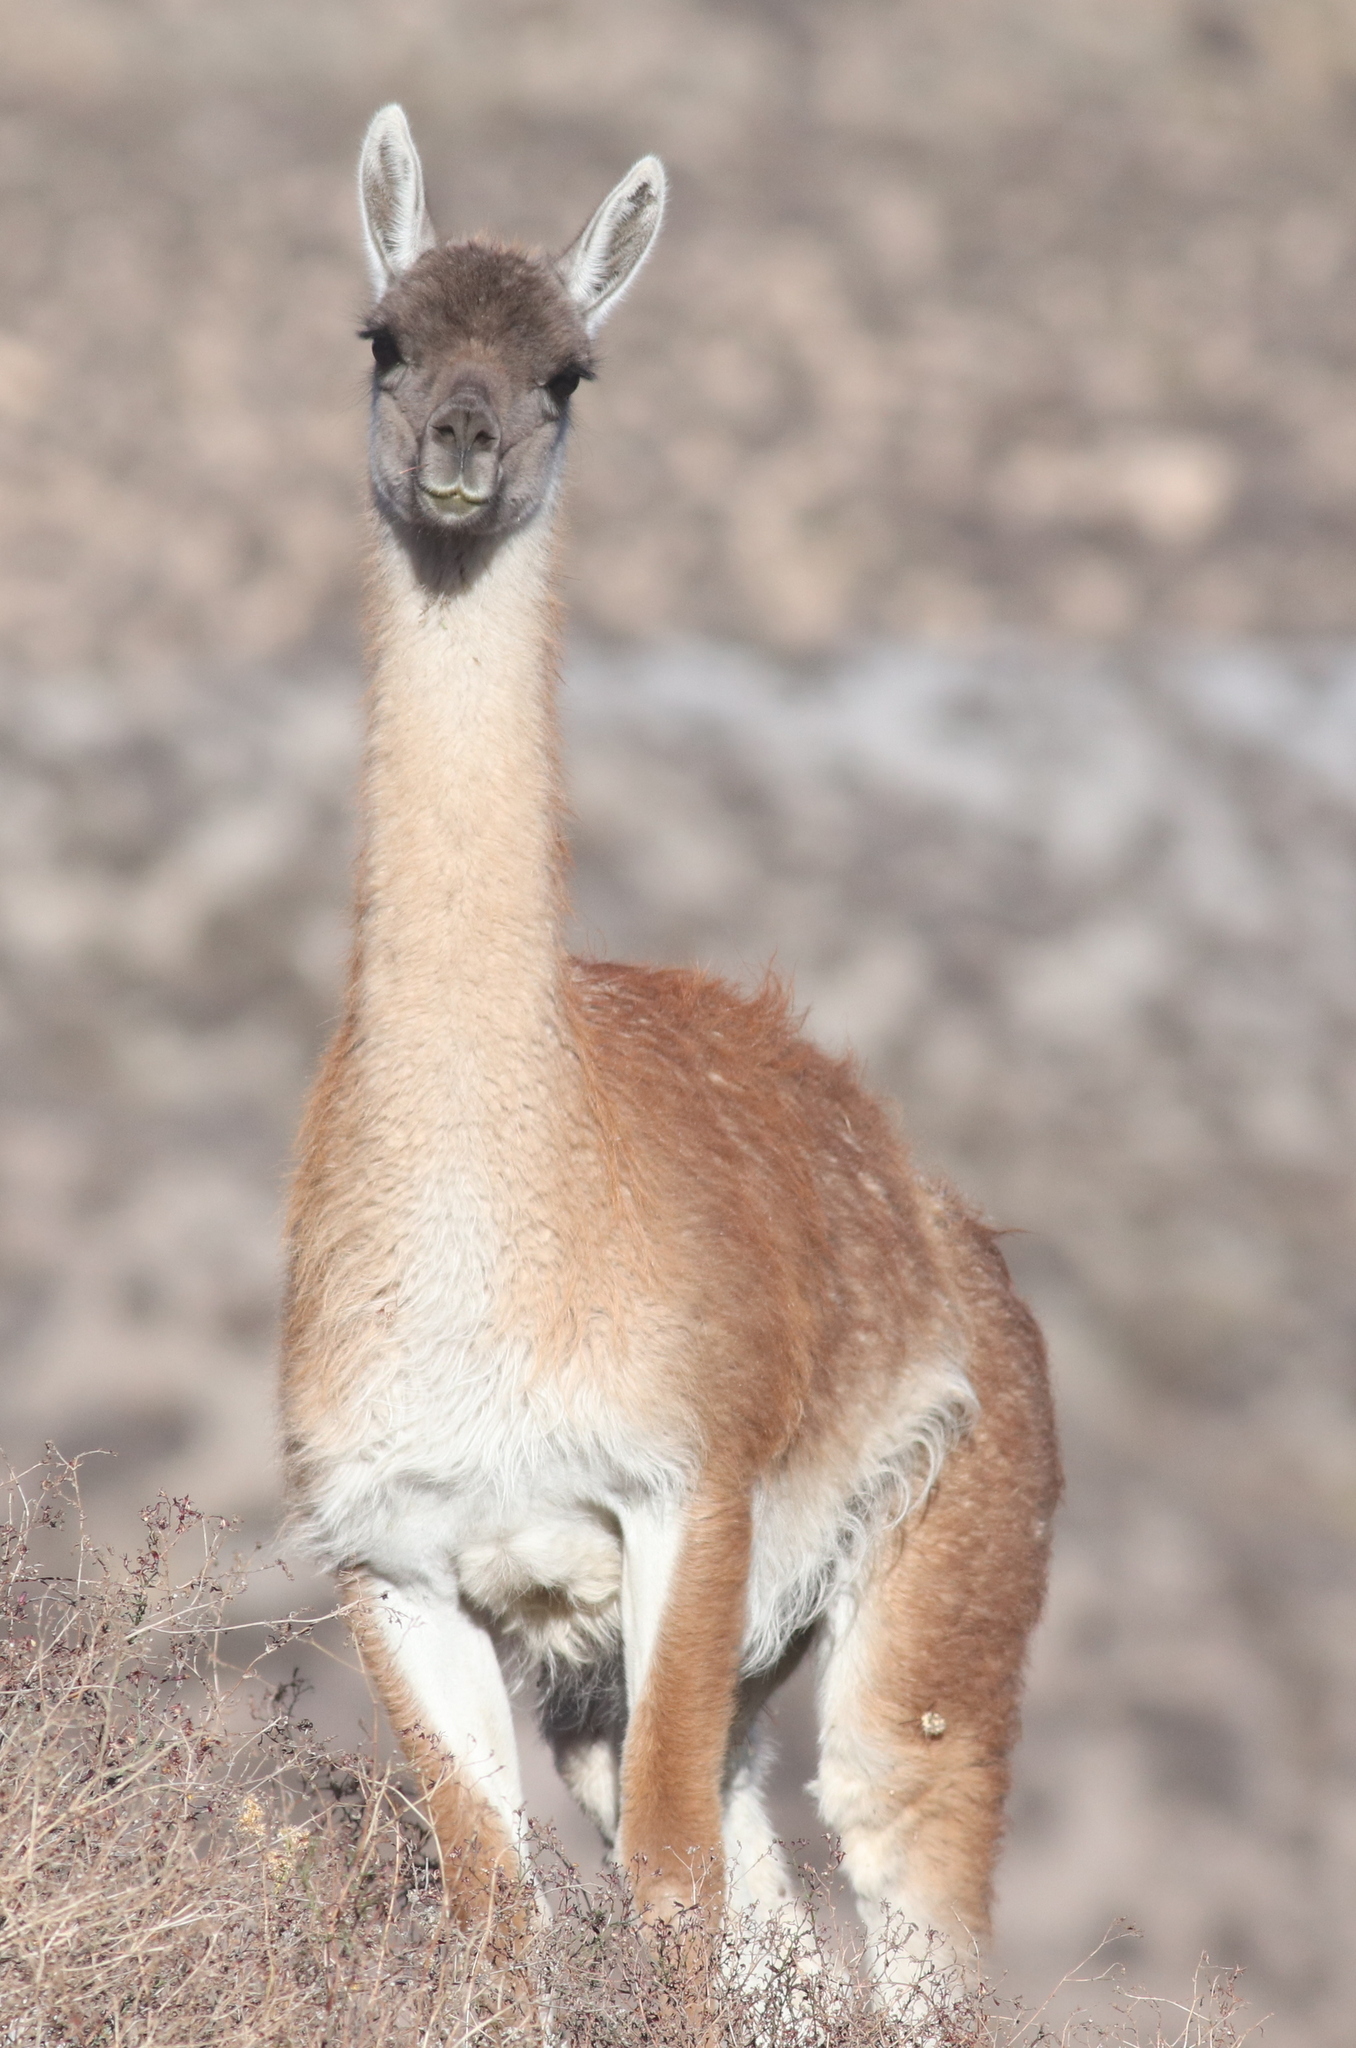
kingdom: Animalia
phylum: Chordata
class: Mammalia
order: Artiodactyla
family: Camelidae
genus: Lama
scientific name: Lama glama
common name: Llama
